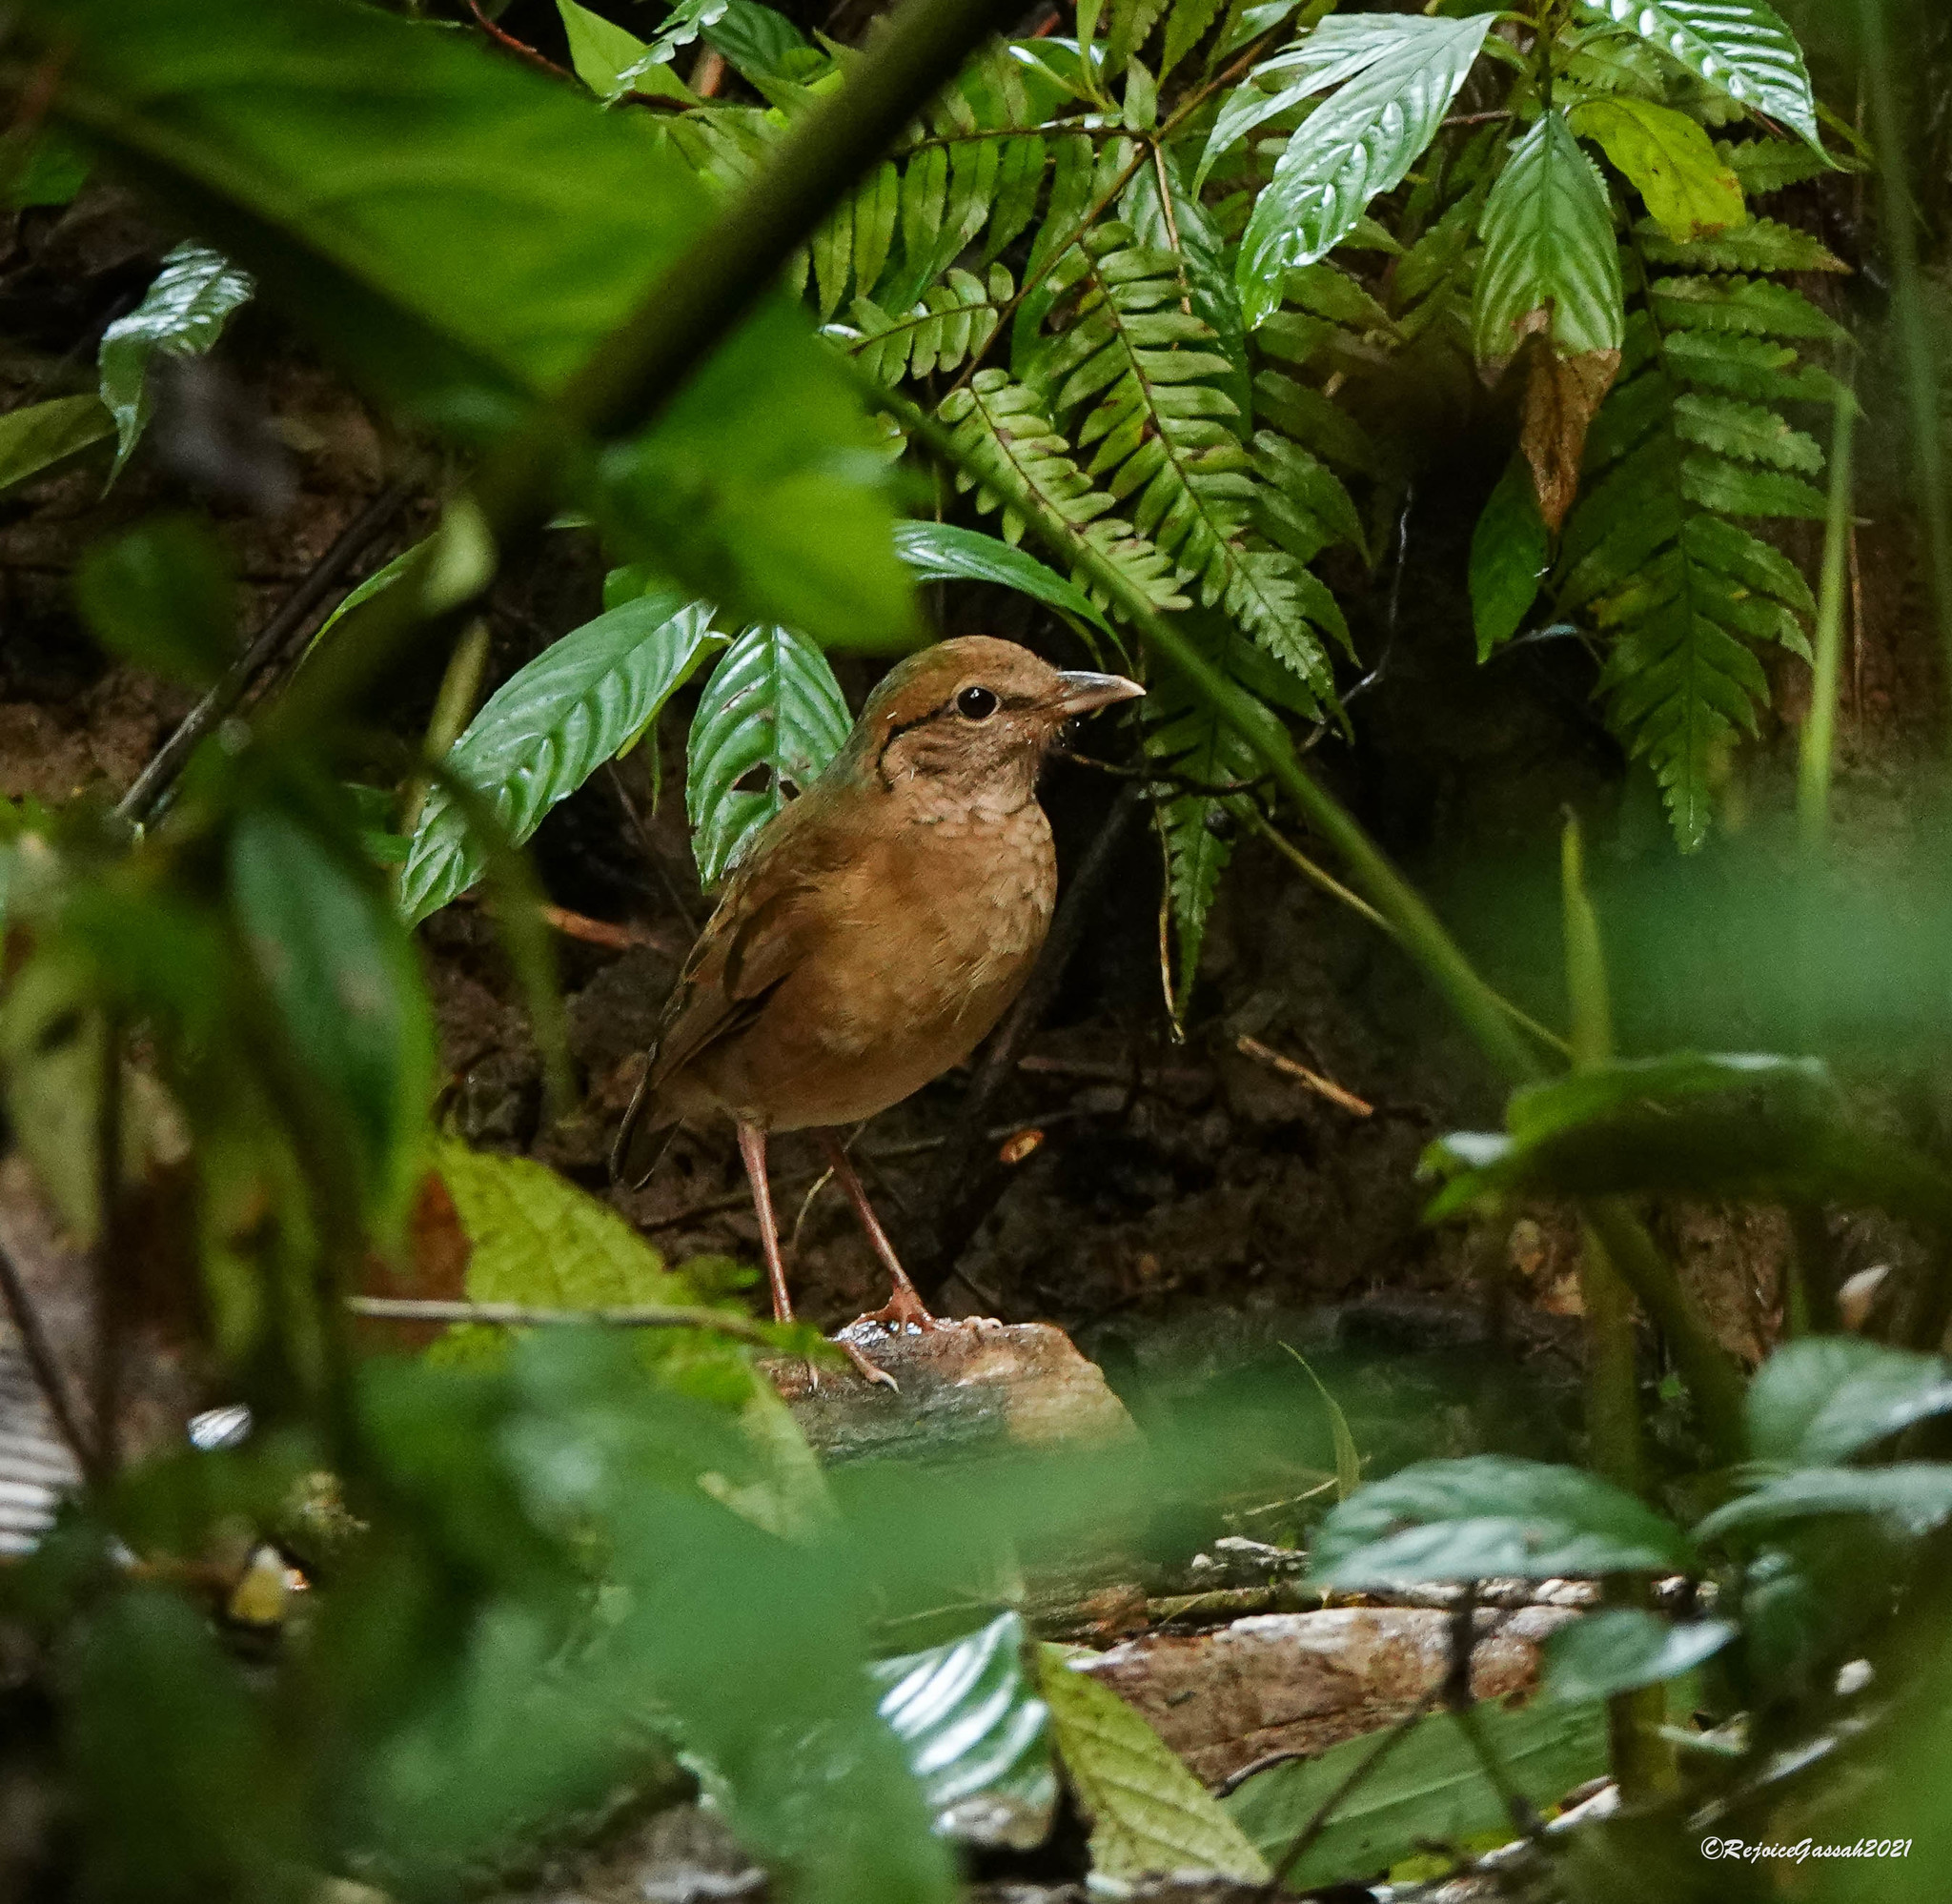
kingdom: Animalia
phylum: Chordata
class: Aves
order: Passeriformes
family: Pittidae
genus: Pitta
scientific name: Pitta nipalensis
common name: Blue-naped pitta
